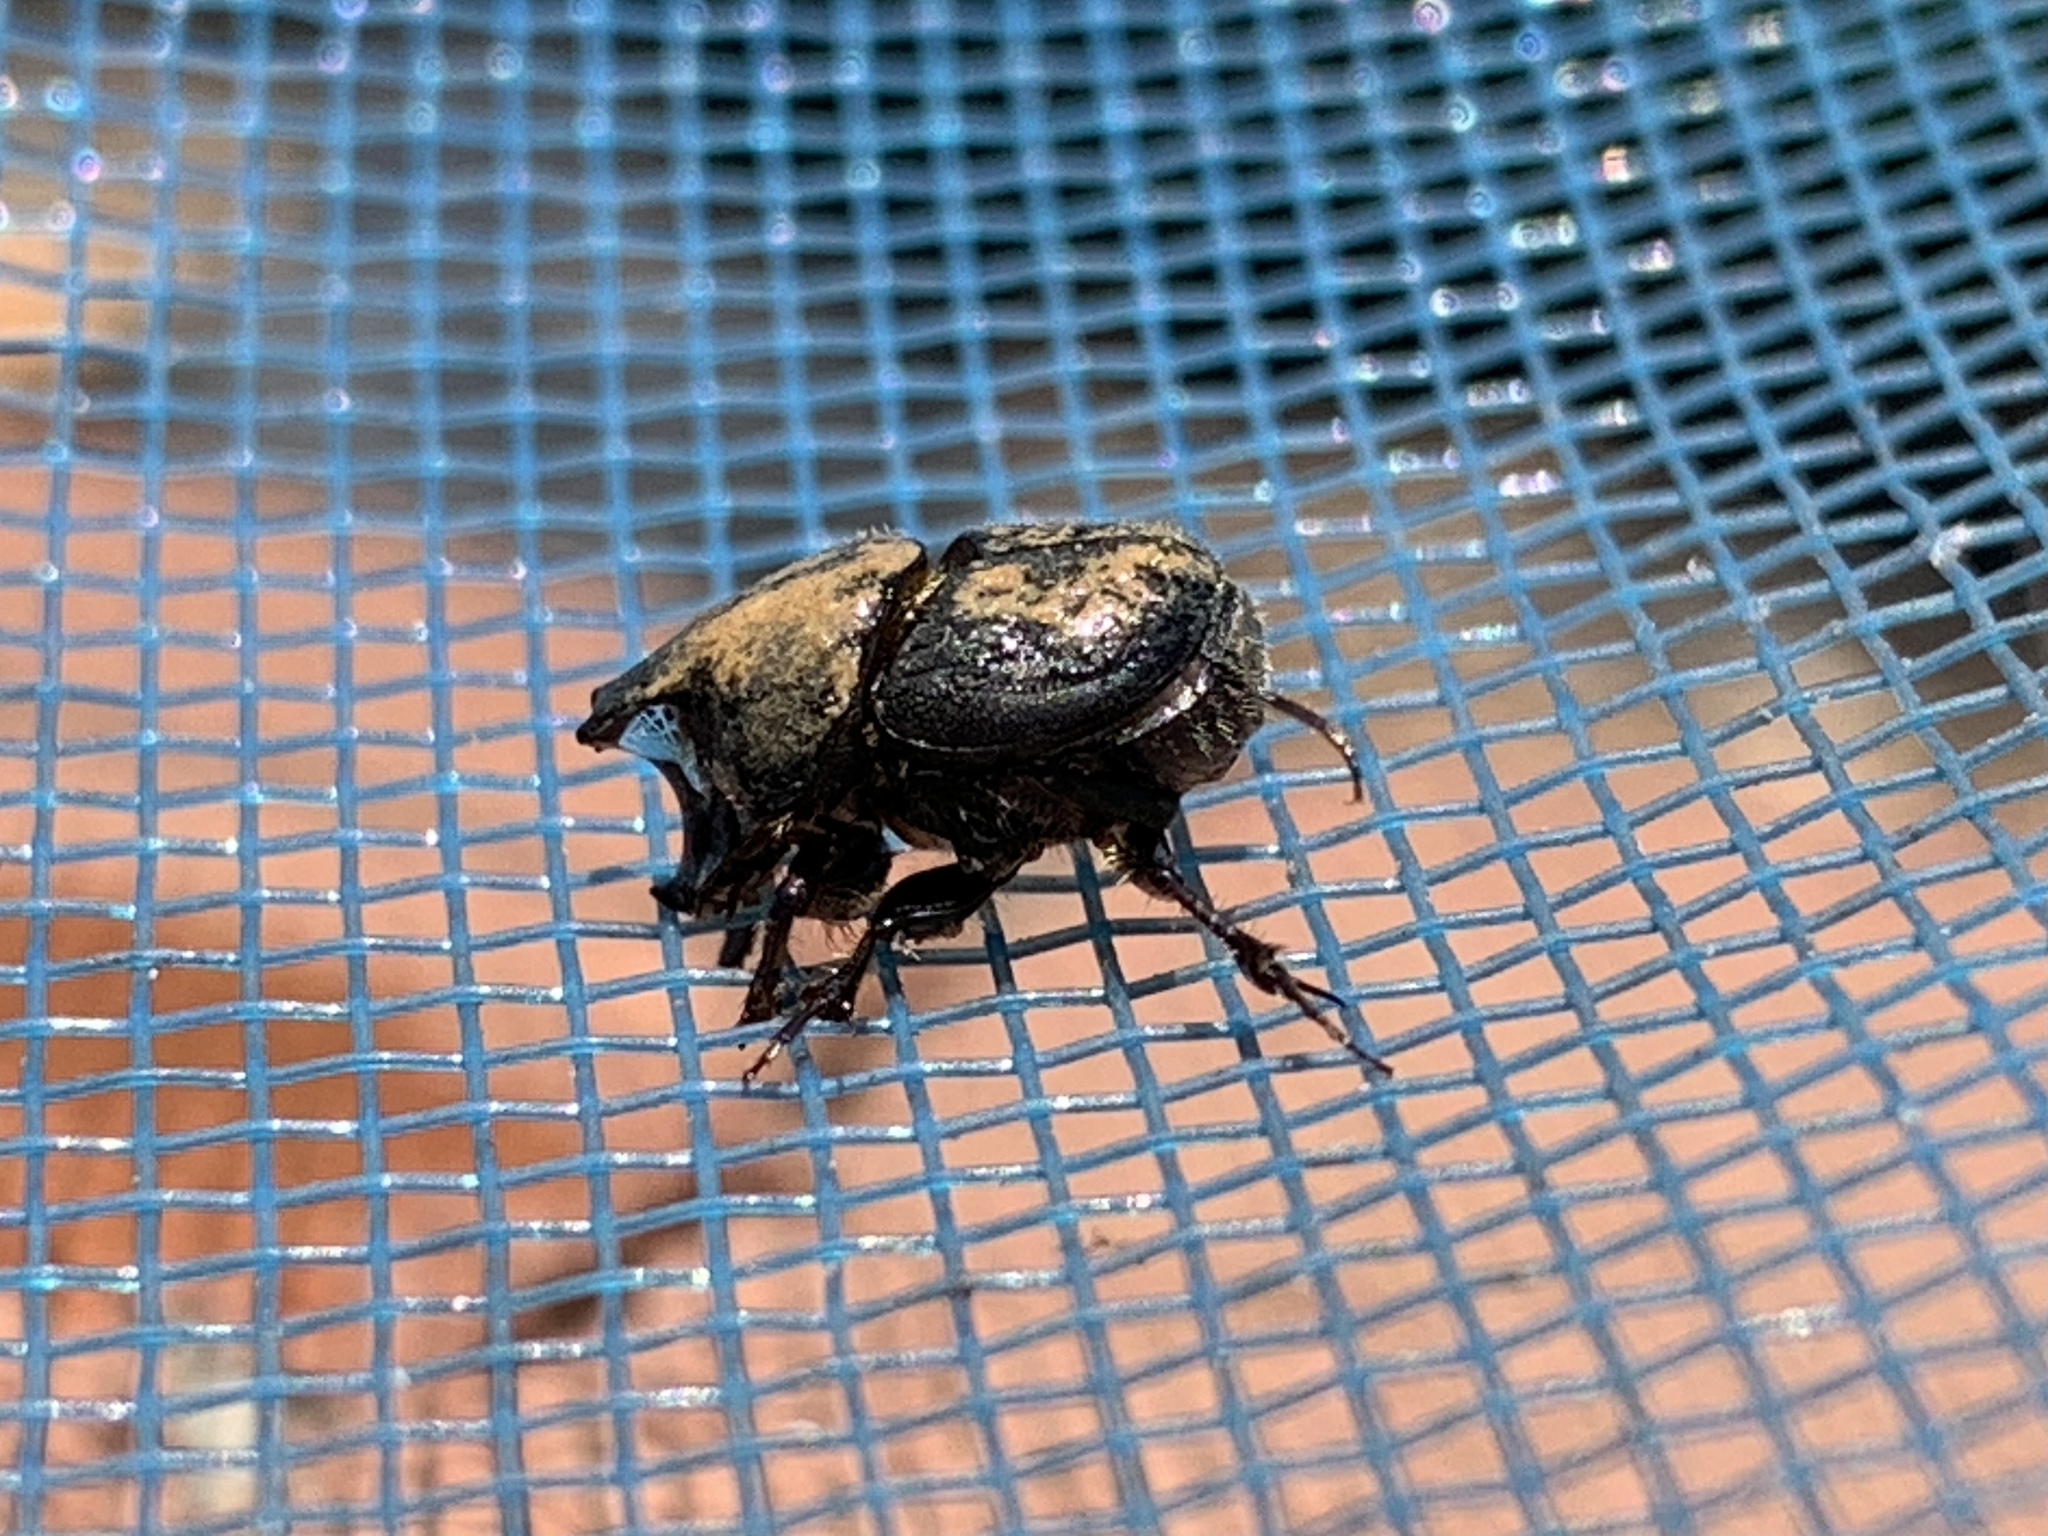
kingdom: Animalia
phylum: Arthropoda
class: Insecta
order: Coleoptera
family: Scarabaeidae
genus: Onthophagus
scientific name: Onthophagus hecate
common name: Scooped scarab
